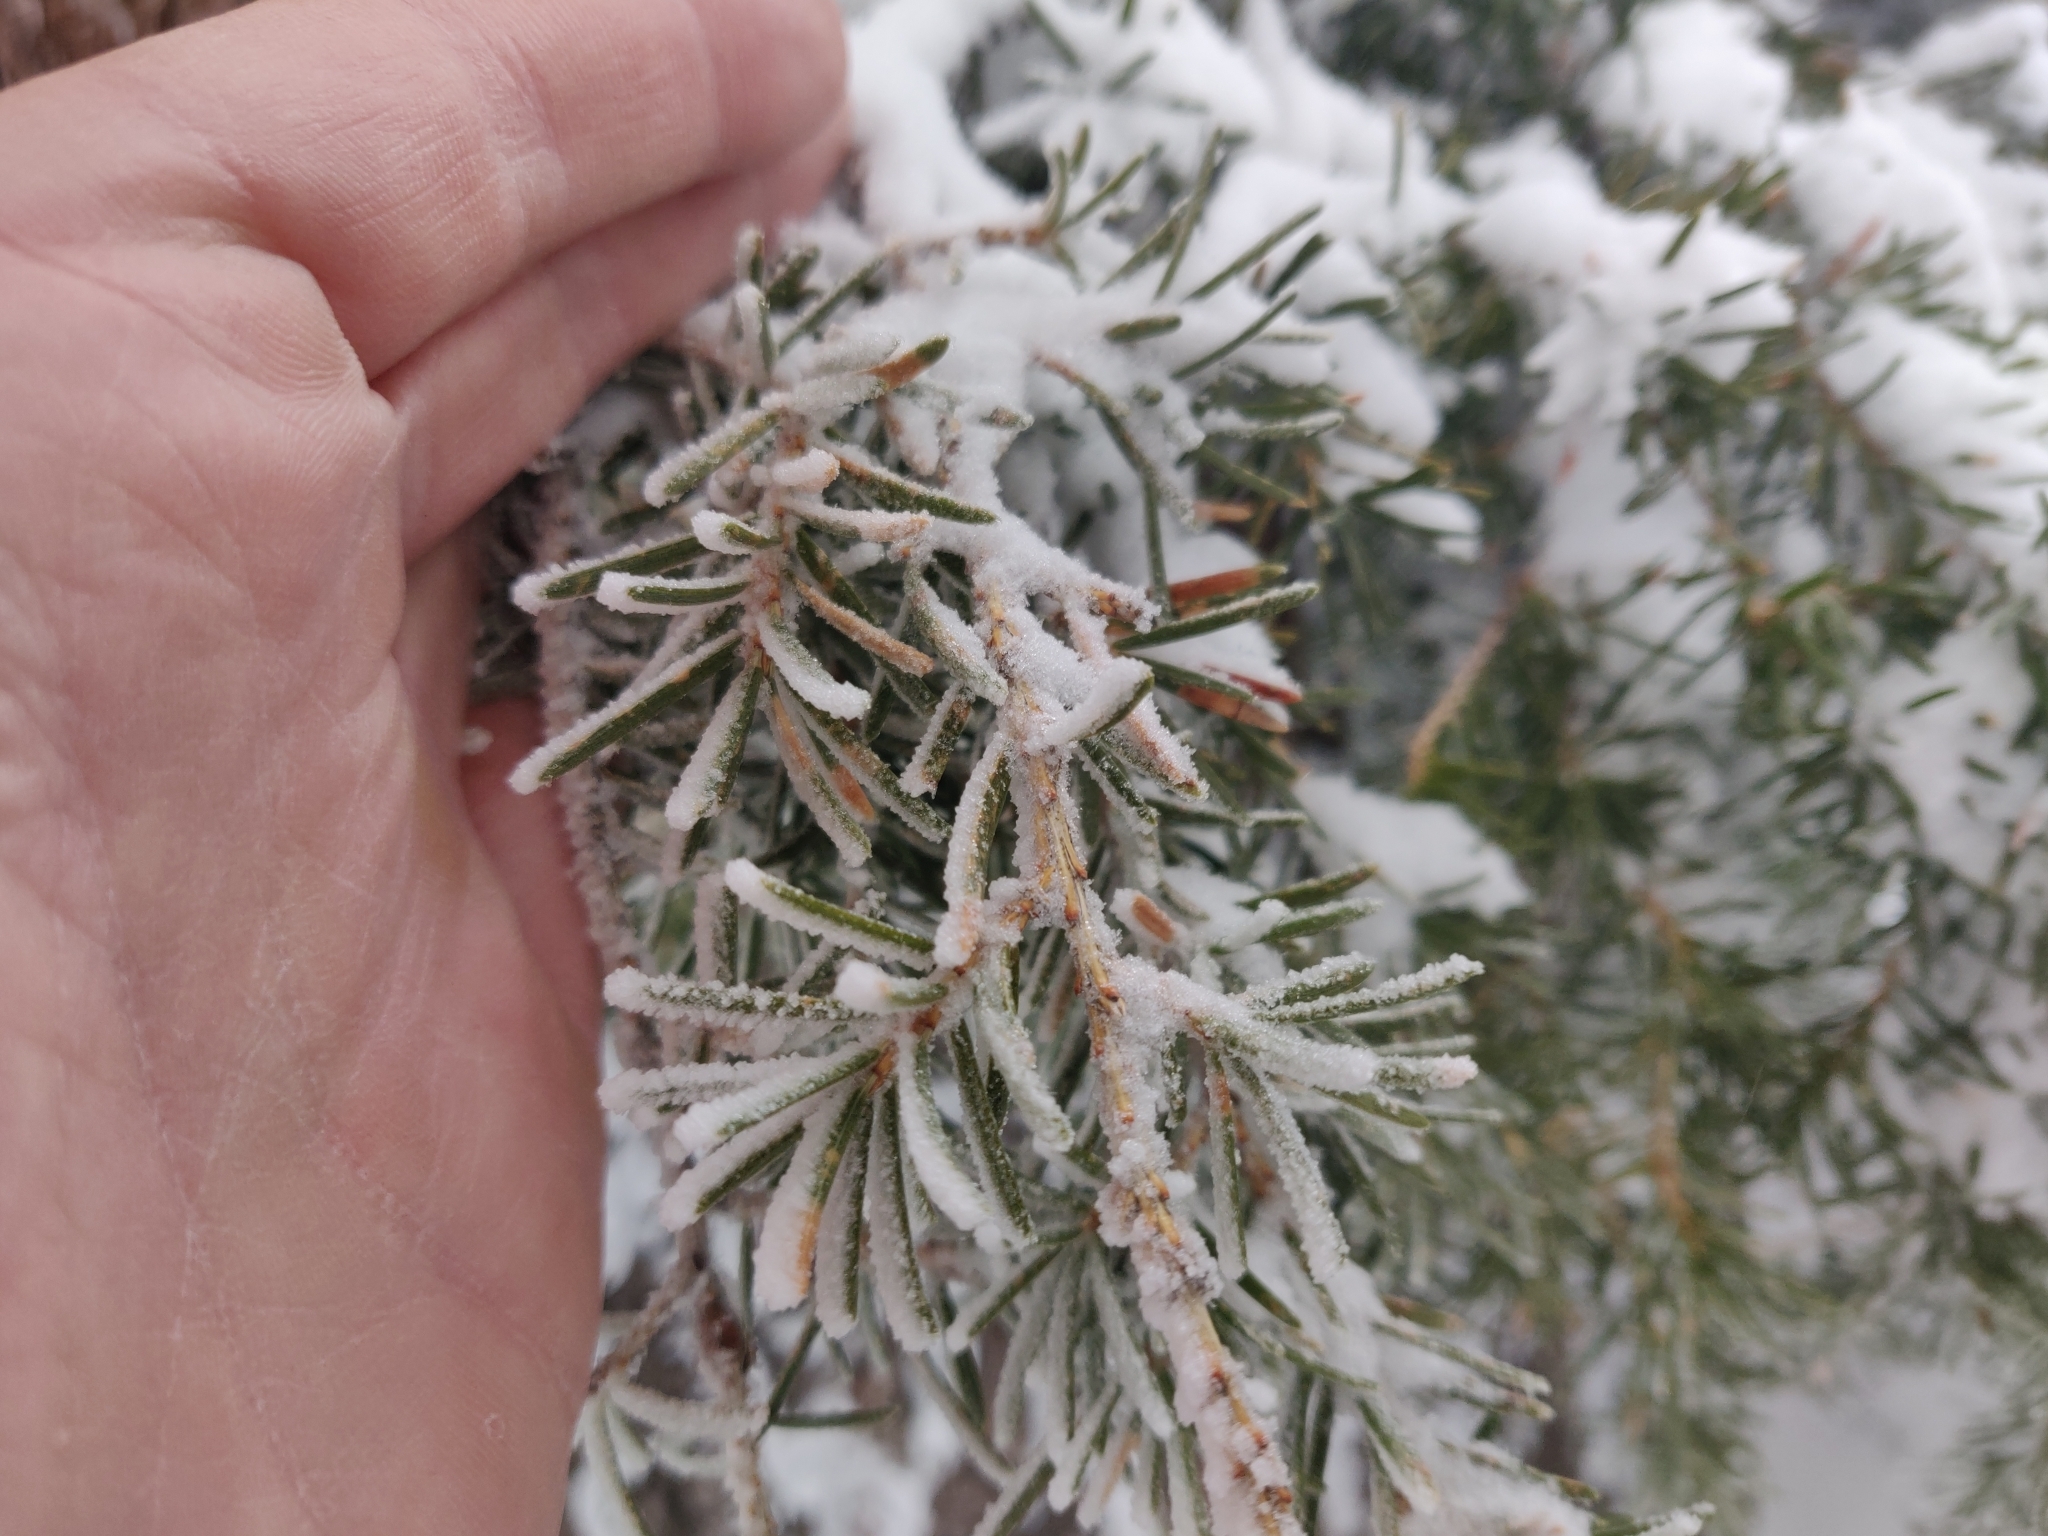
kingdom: Plantae
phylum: Tracheophyta
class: Pinopsida
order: Pinales
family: Pinaceae
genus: Tsuga
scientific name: Tsuga mertensiana
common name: Mountain hemlock
